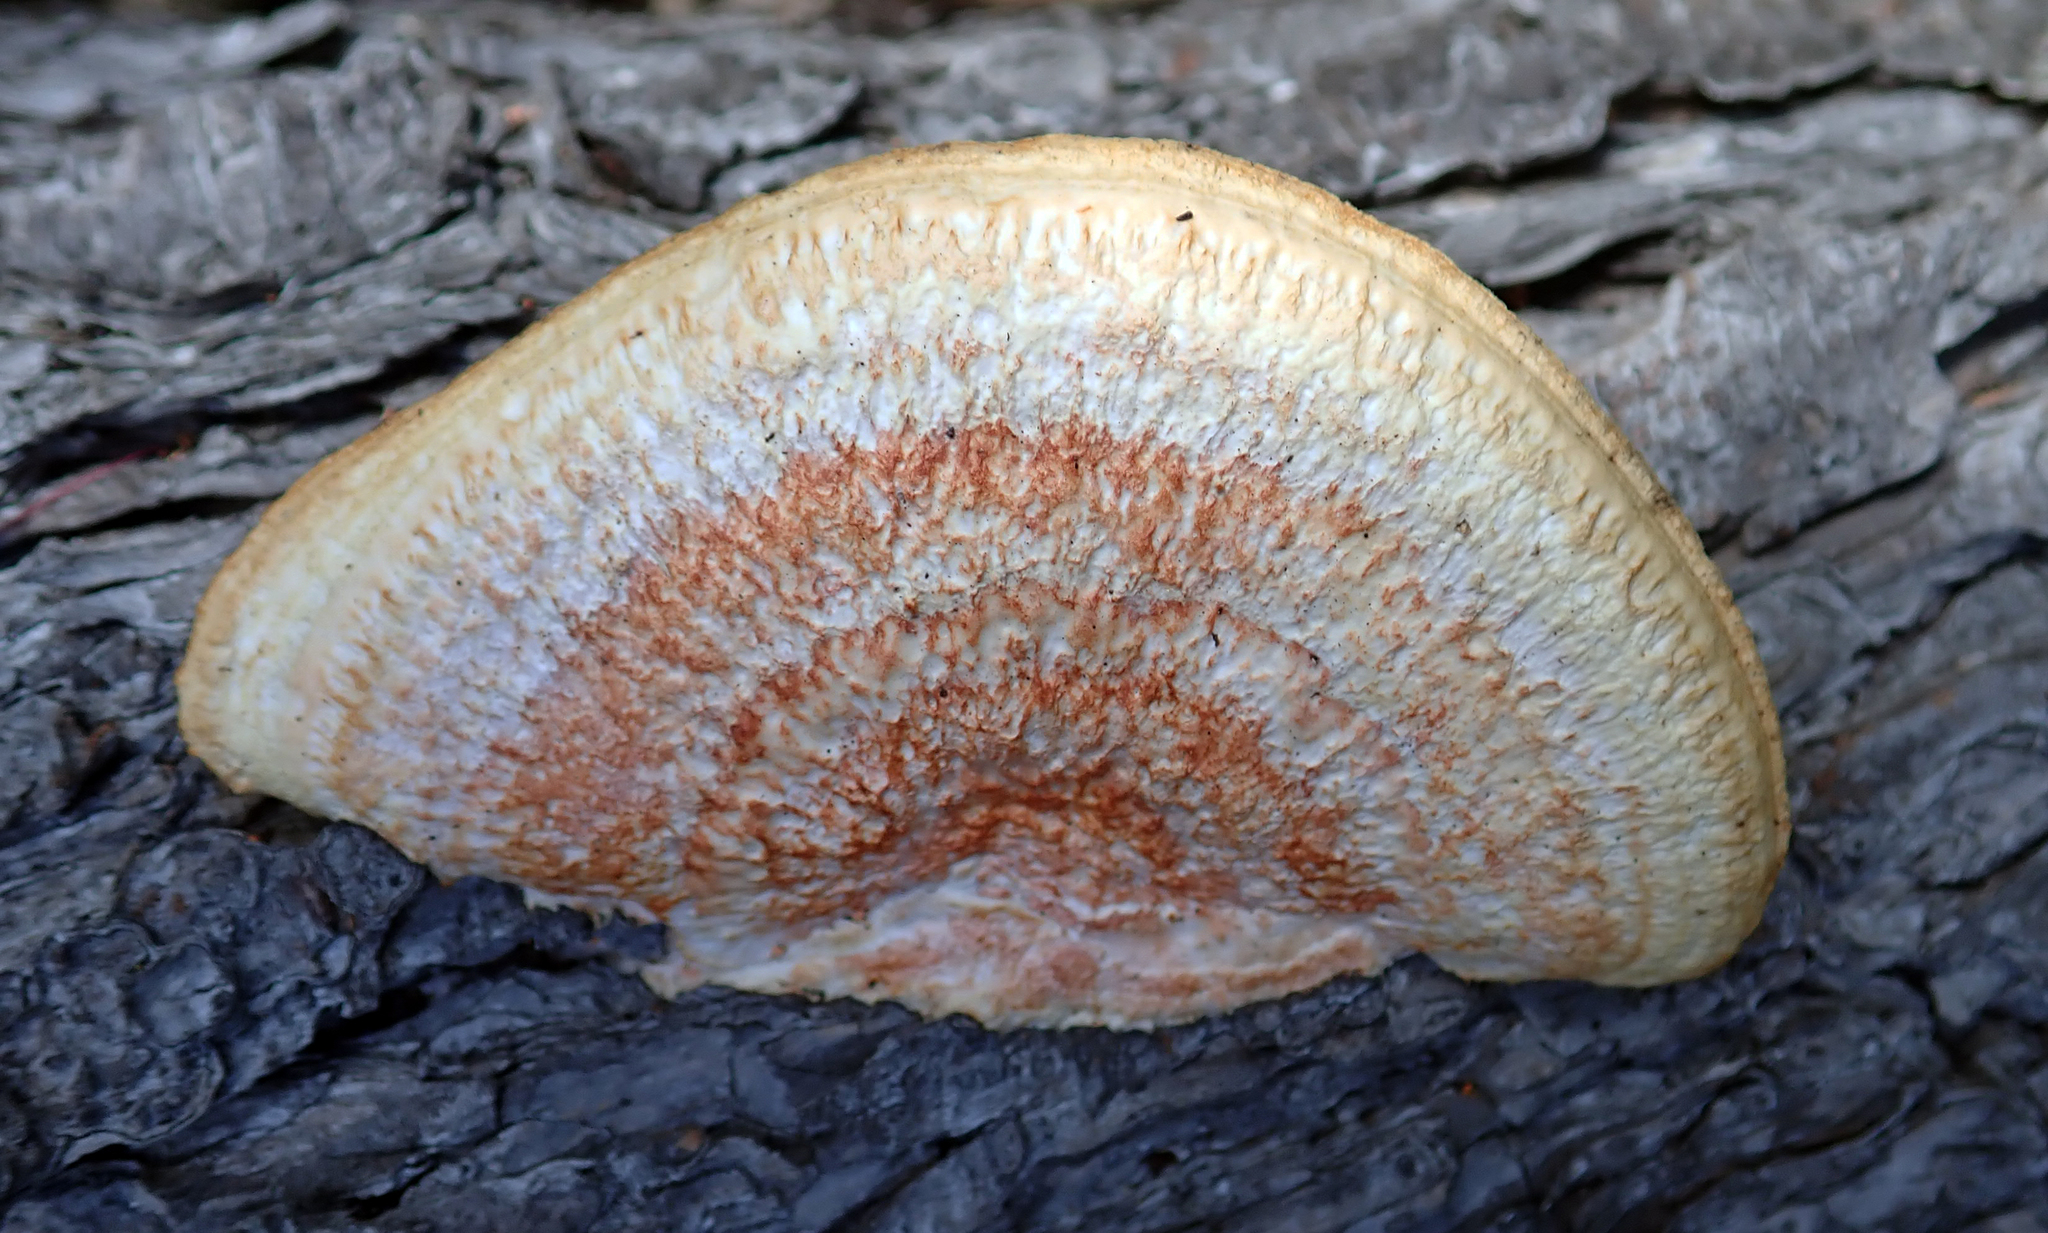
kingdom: Fungi
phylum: Basidiomycota
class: Agaricomycetes
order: Polyporales
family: Polyporaceae
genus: Trametes
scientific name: Trametes coccinea
